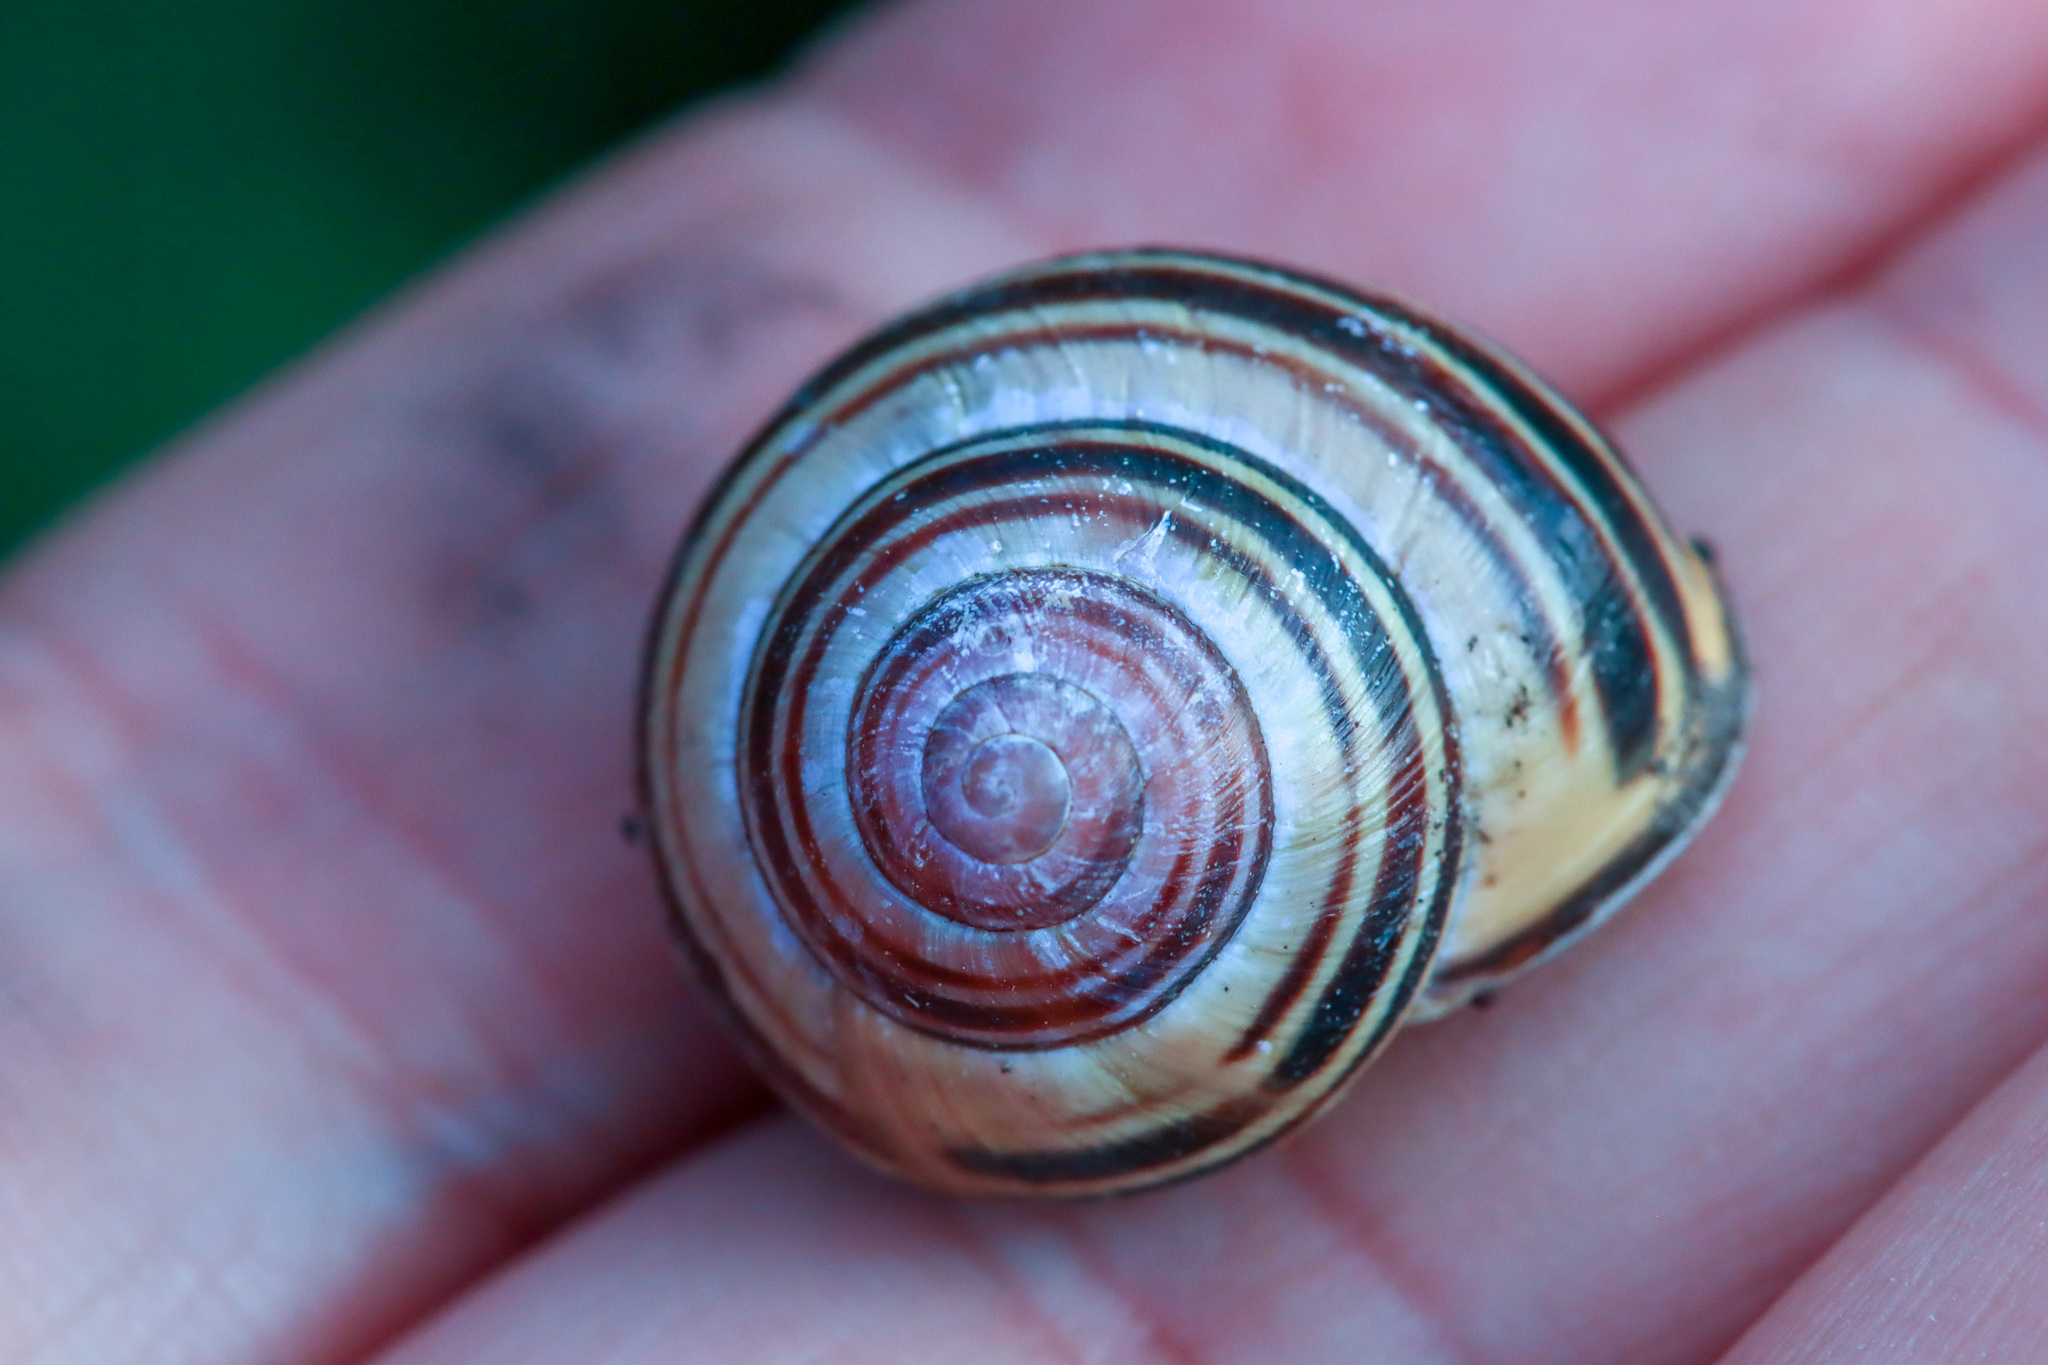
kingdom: Animalia
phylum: Mollusca
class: Gastropoda
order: Stylommatophora
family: Helicidae
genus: Cepaea
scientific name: Cepaea nemoralis
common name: Grovesnail
